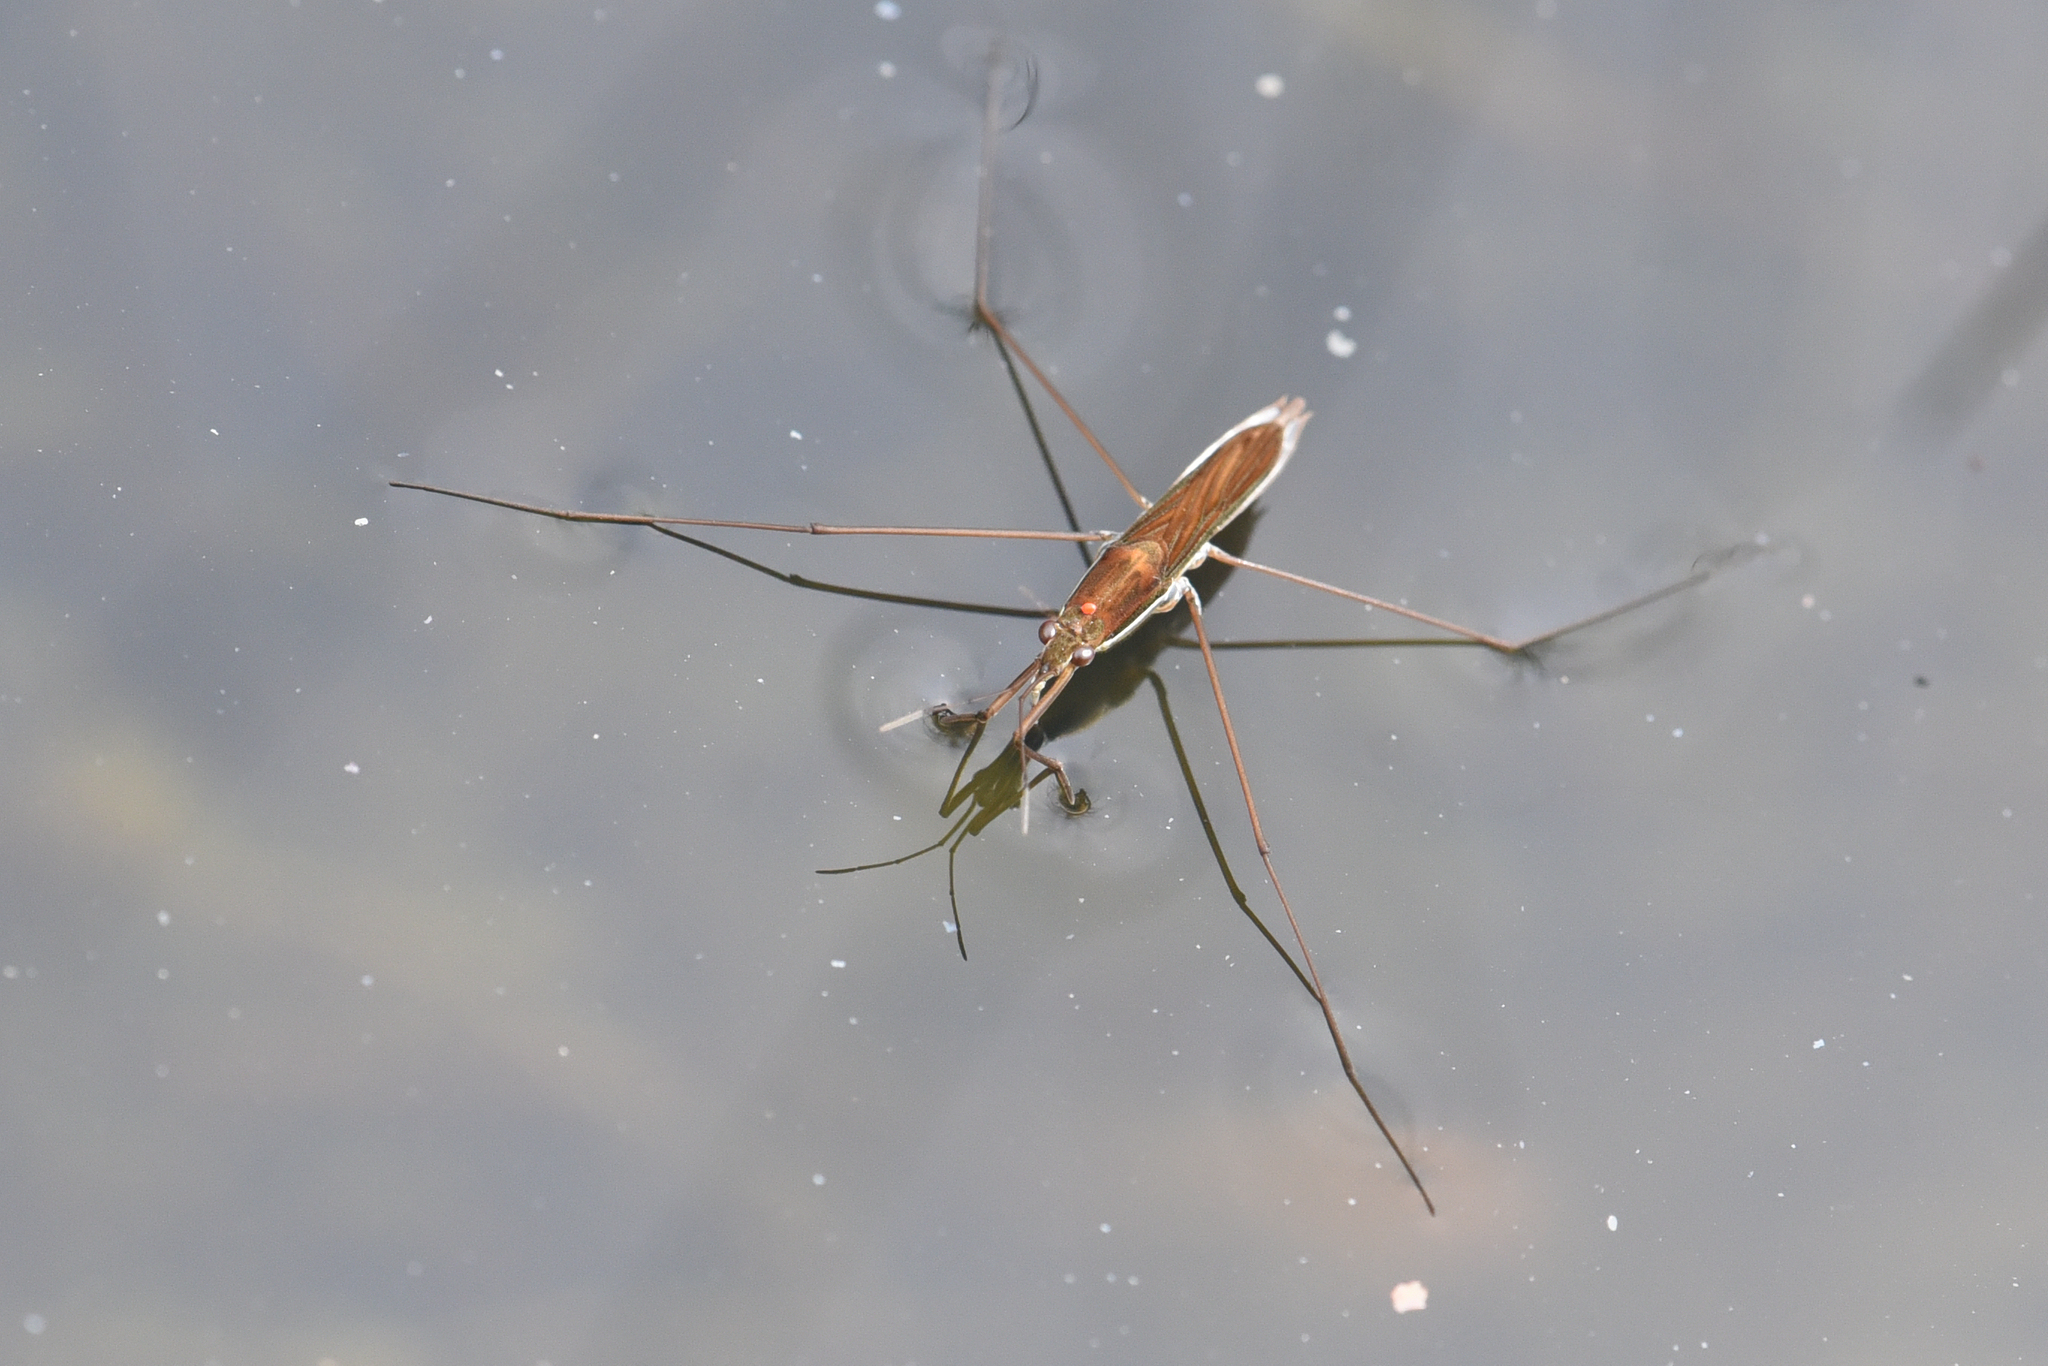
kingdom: Animalia
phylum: Arthropoda
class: Insecta
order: Hemiptera
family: Gerridae
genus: Limnoporus
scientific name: Limnoporus notabilis
